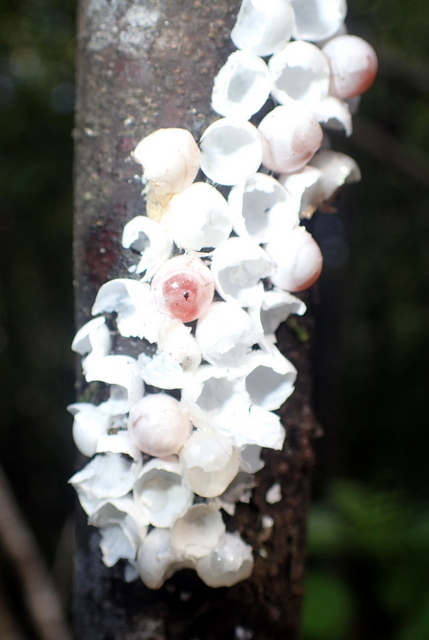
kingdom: Animalia
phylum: Mollusca
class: Gastropoda
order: Architaenioglossa
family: Ampullariidae
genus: Pomacea
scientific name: Pomacea paludosa
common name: Florida applesnail
